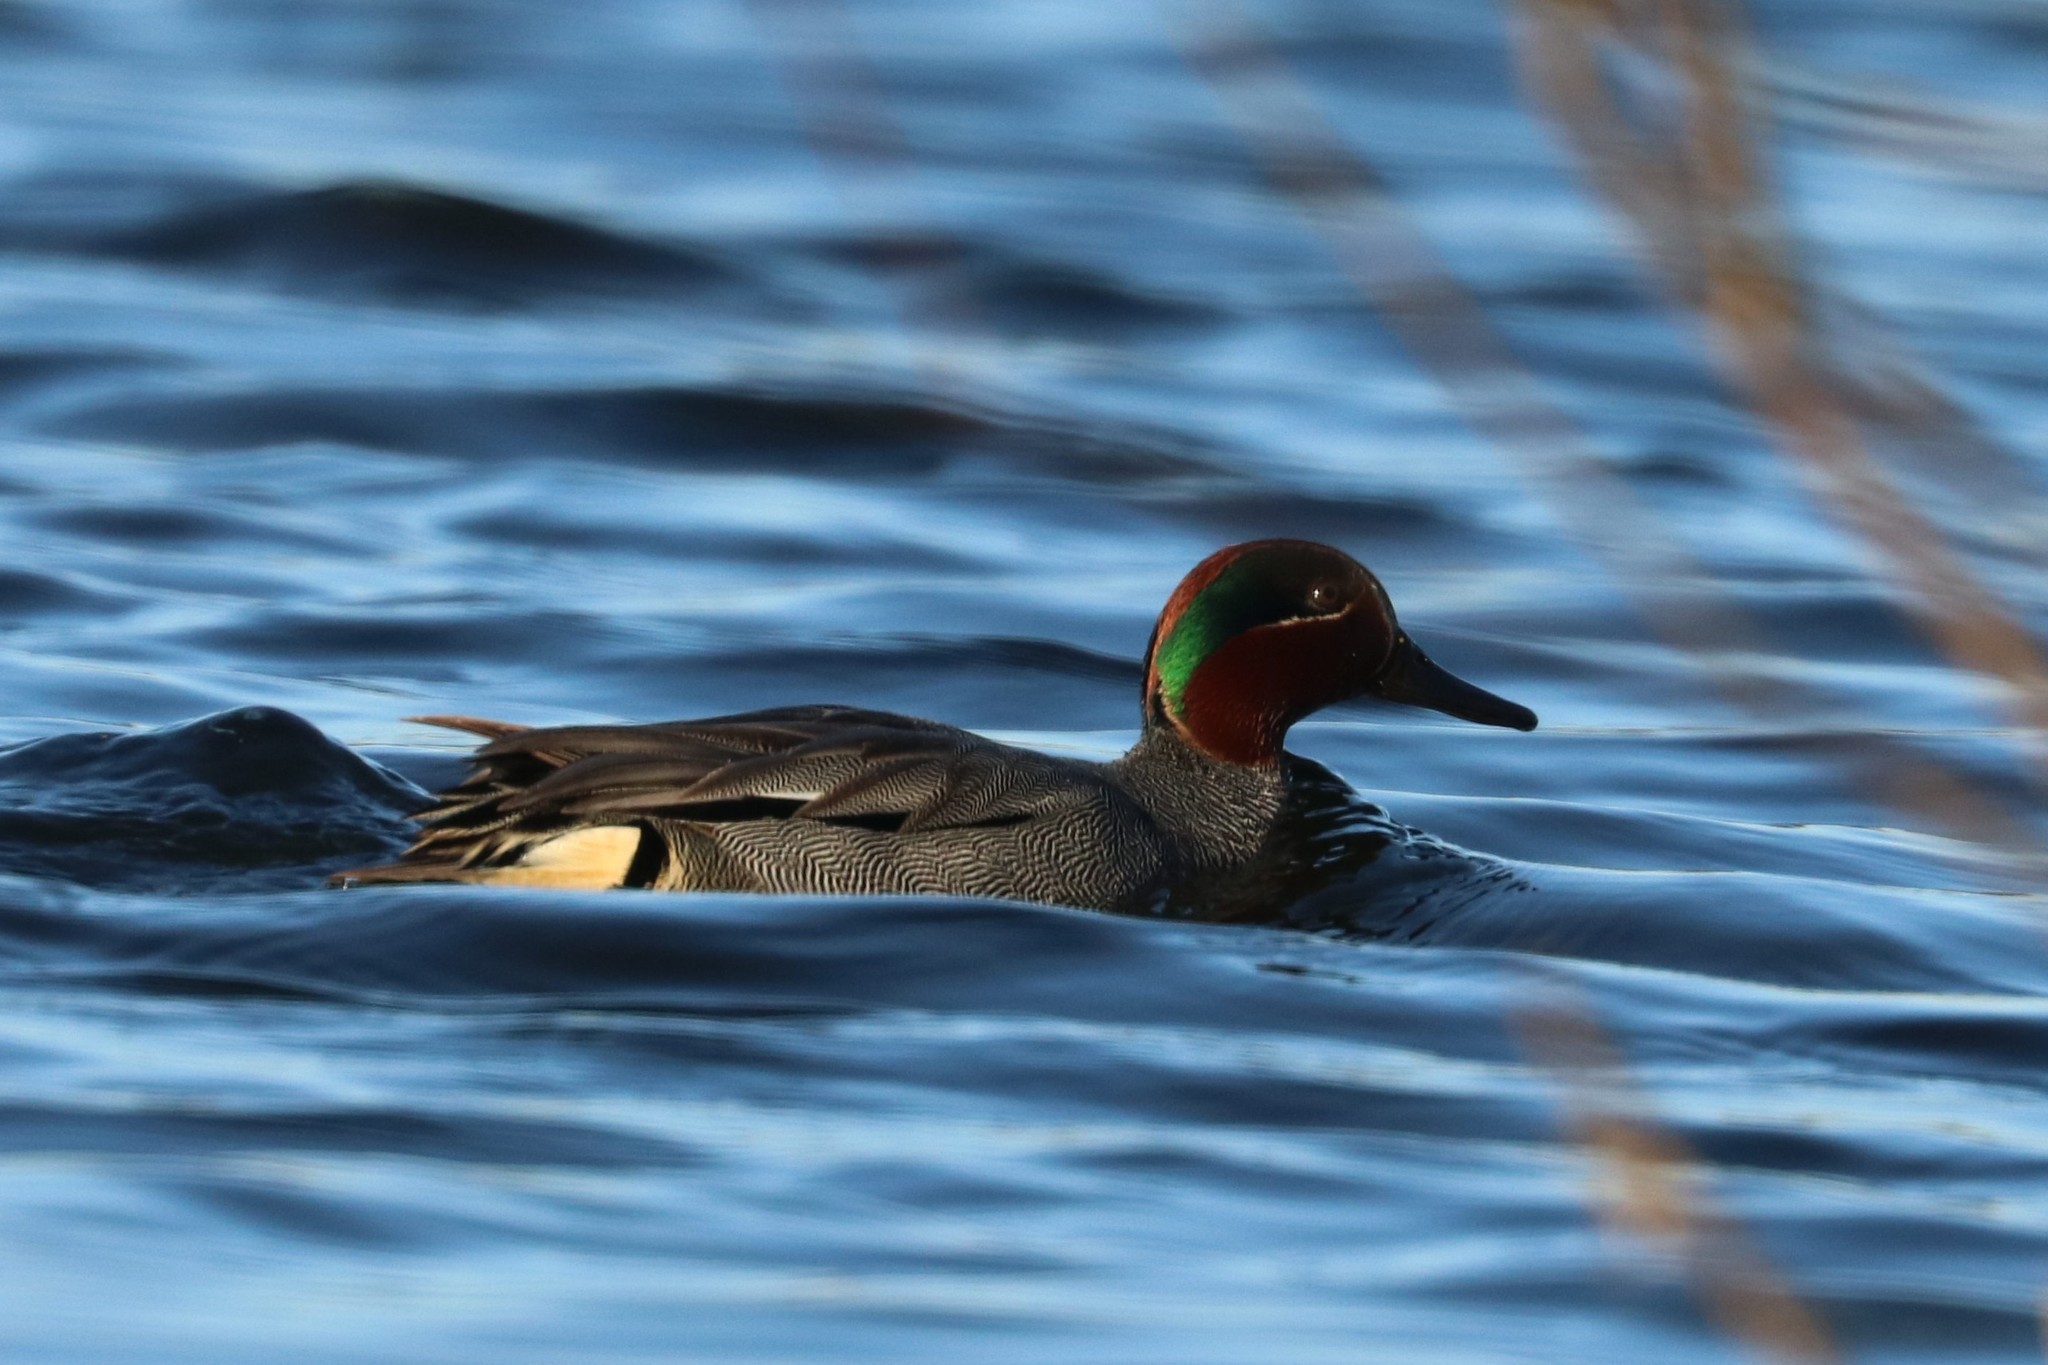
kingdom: Animalia
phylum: Chordata
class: Aves
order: Anseriformes
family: Anatidae
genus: Anas
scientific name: Anas crecca
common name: Eurasian teal
